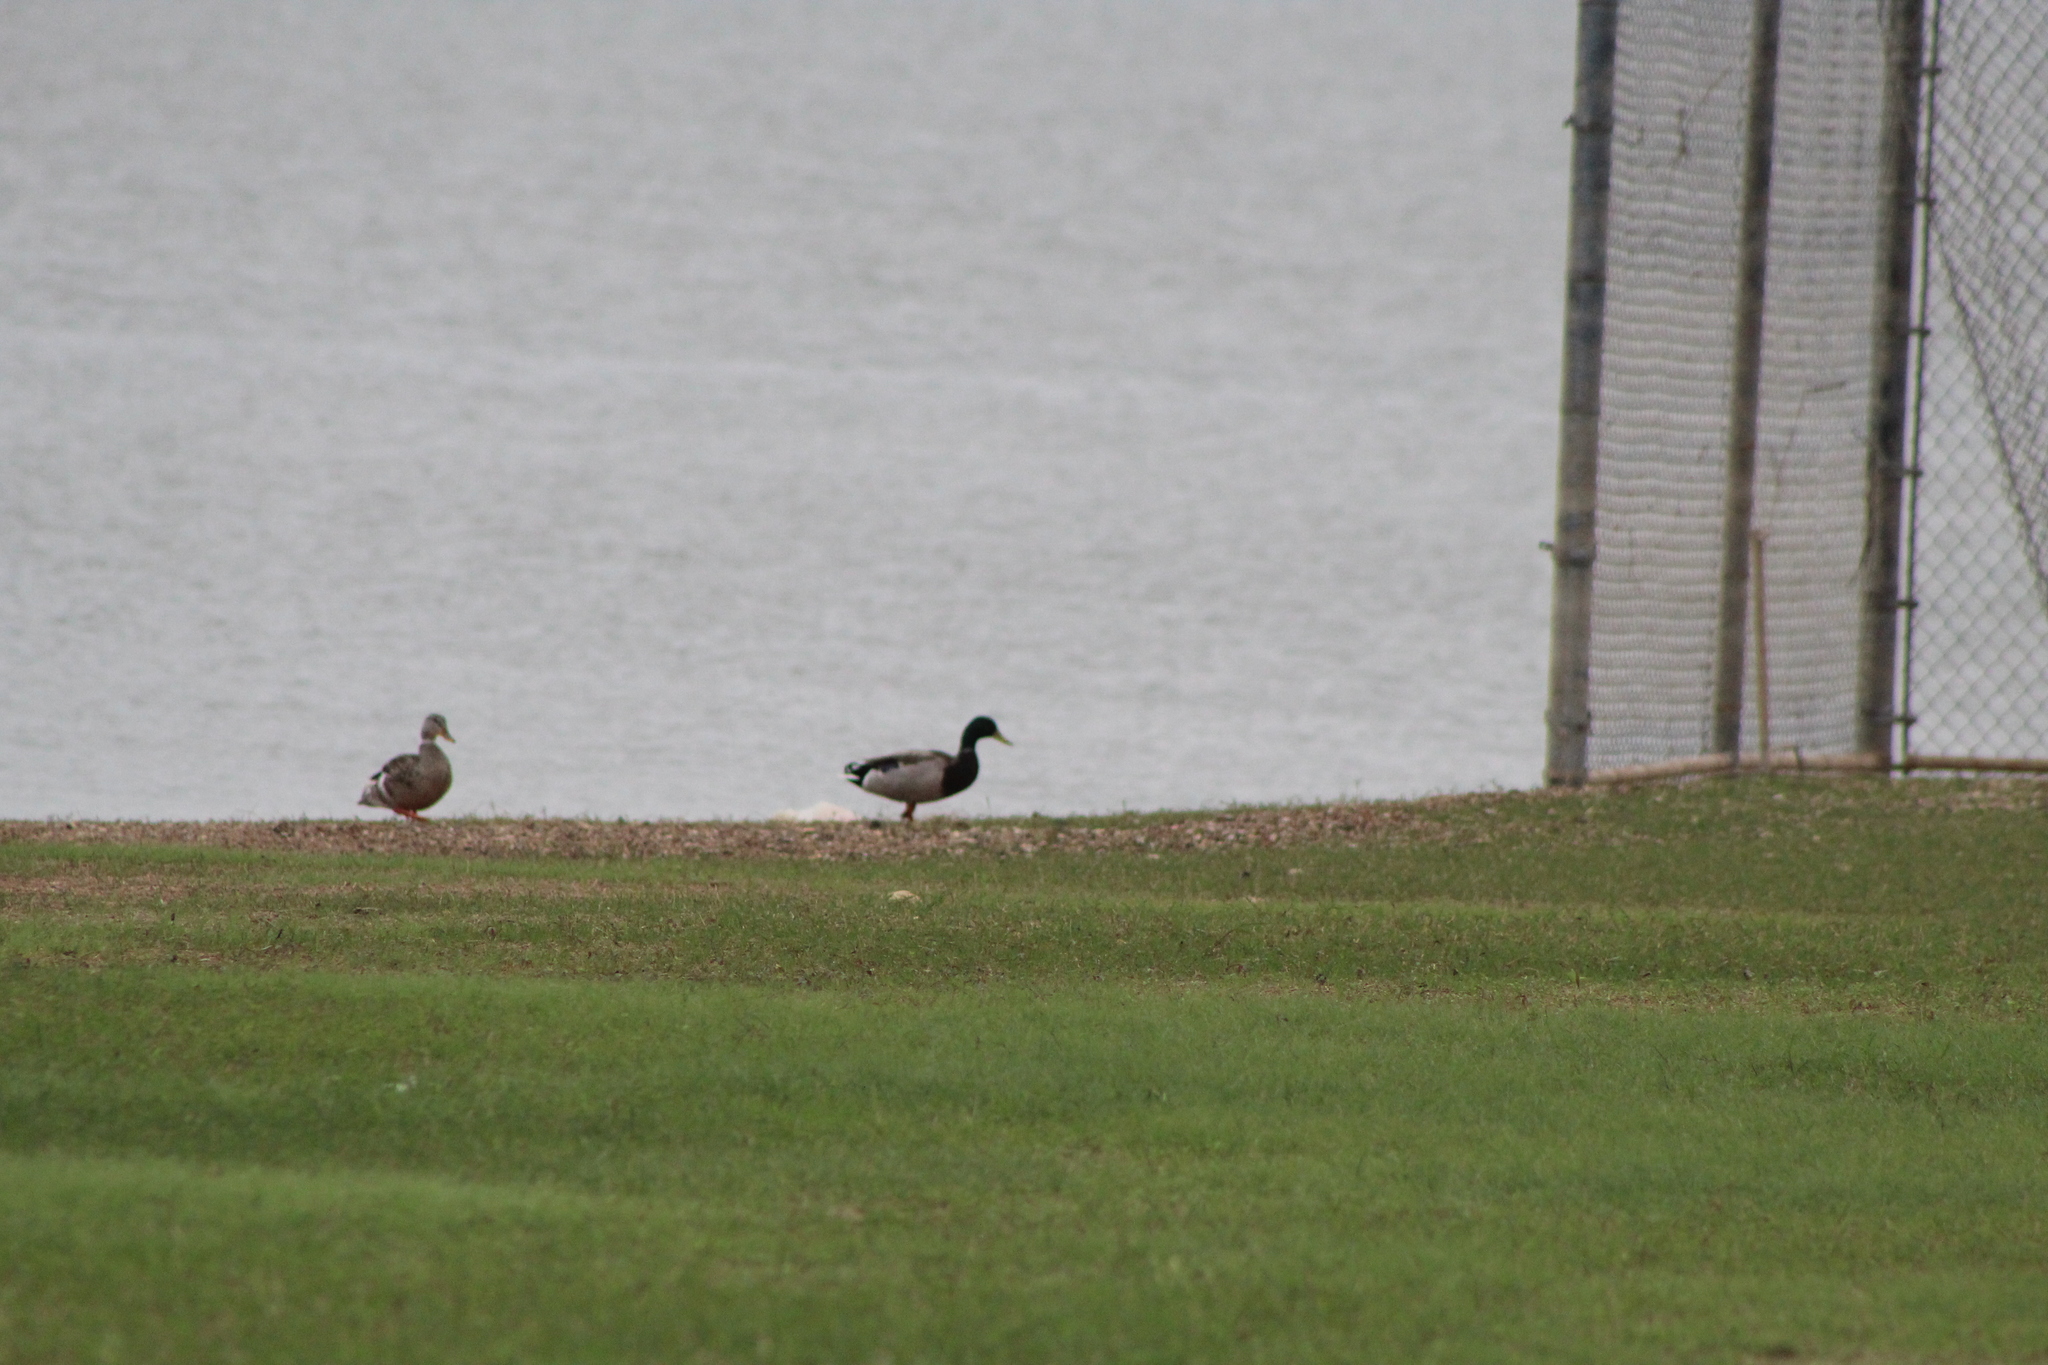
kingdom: Animalia
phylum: Chordata
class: Aves
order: Anseriformes
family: Anatidae
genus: Anas
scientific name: Anas platyrhynchos
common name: Mallard
